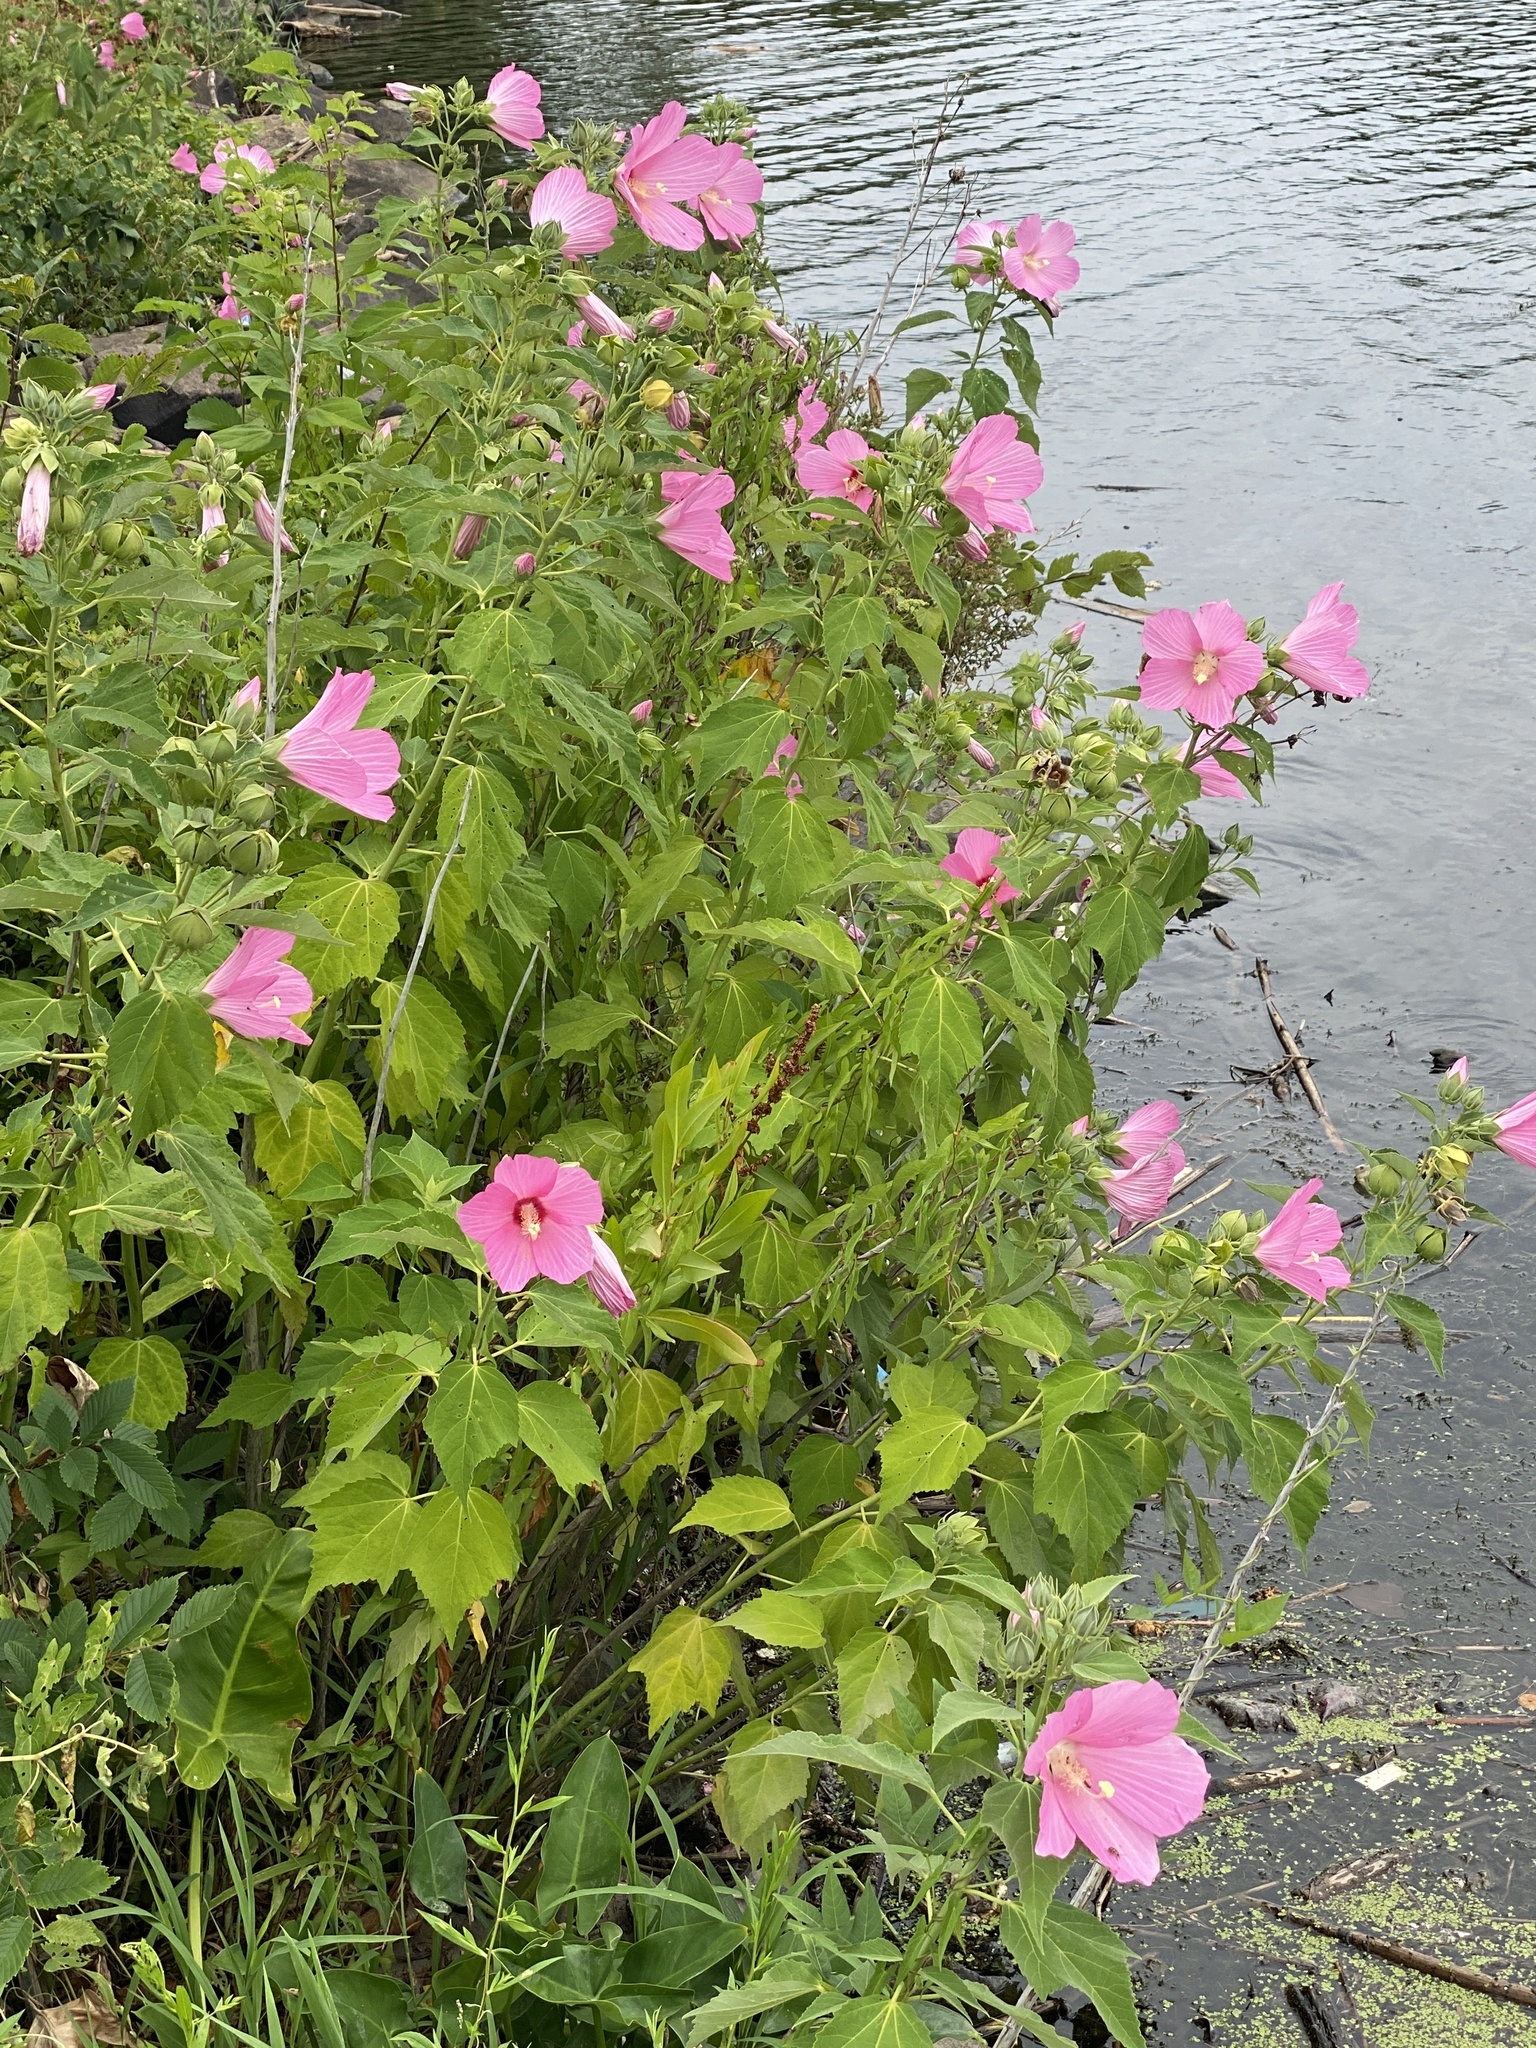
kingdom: Plantae
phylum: Tracheophyta
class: Magnoliopsida
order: Malvales
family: Malvaceae
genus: Hibiscus
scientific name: Hibiscus moscheutos
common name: Common rose-mallow
